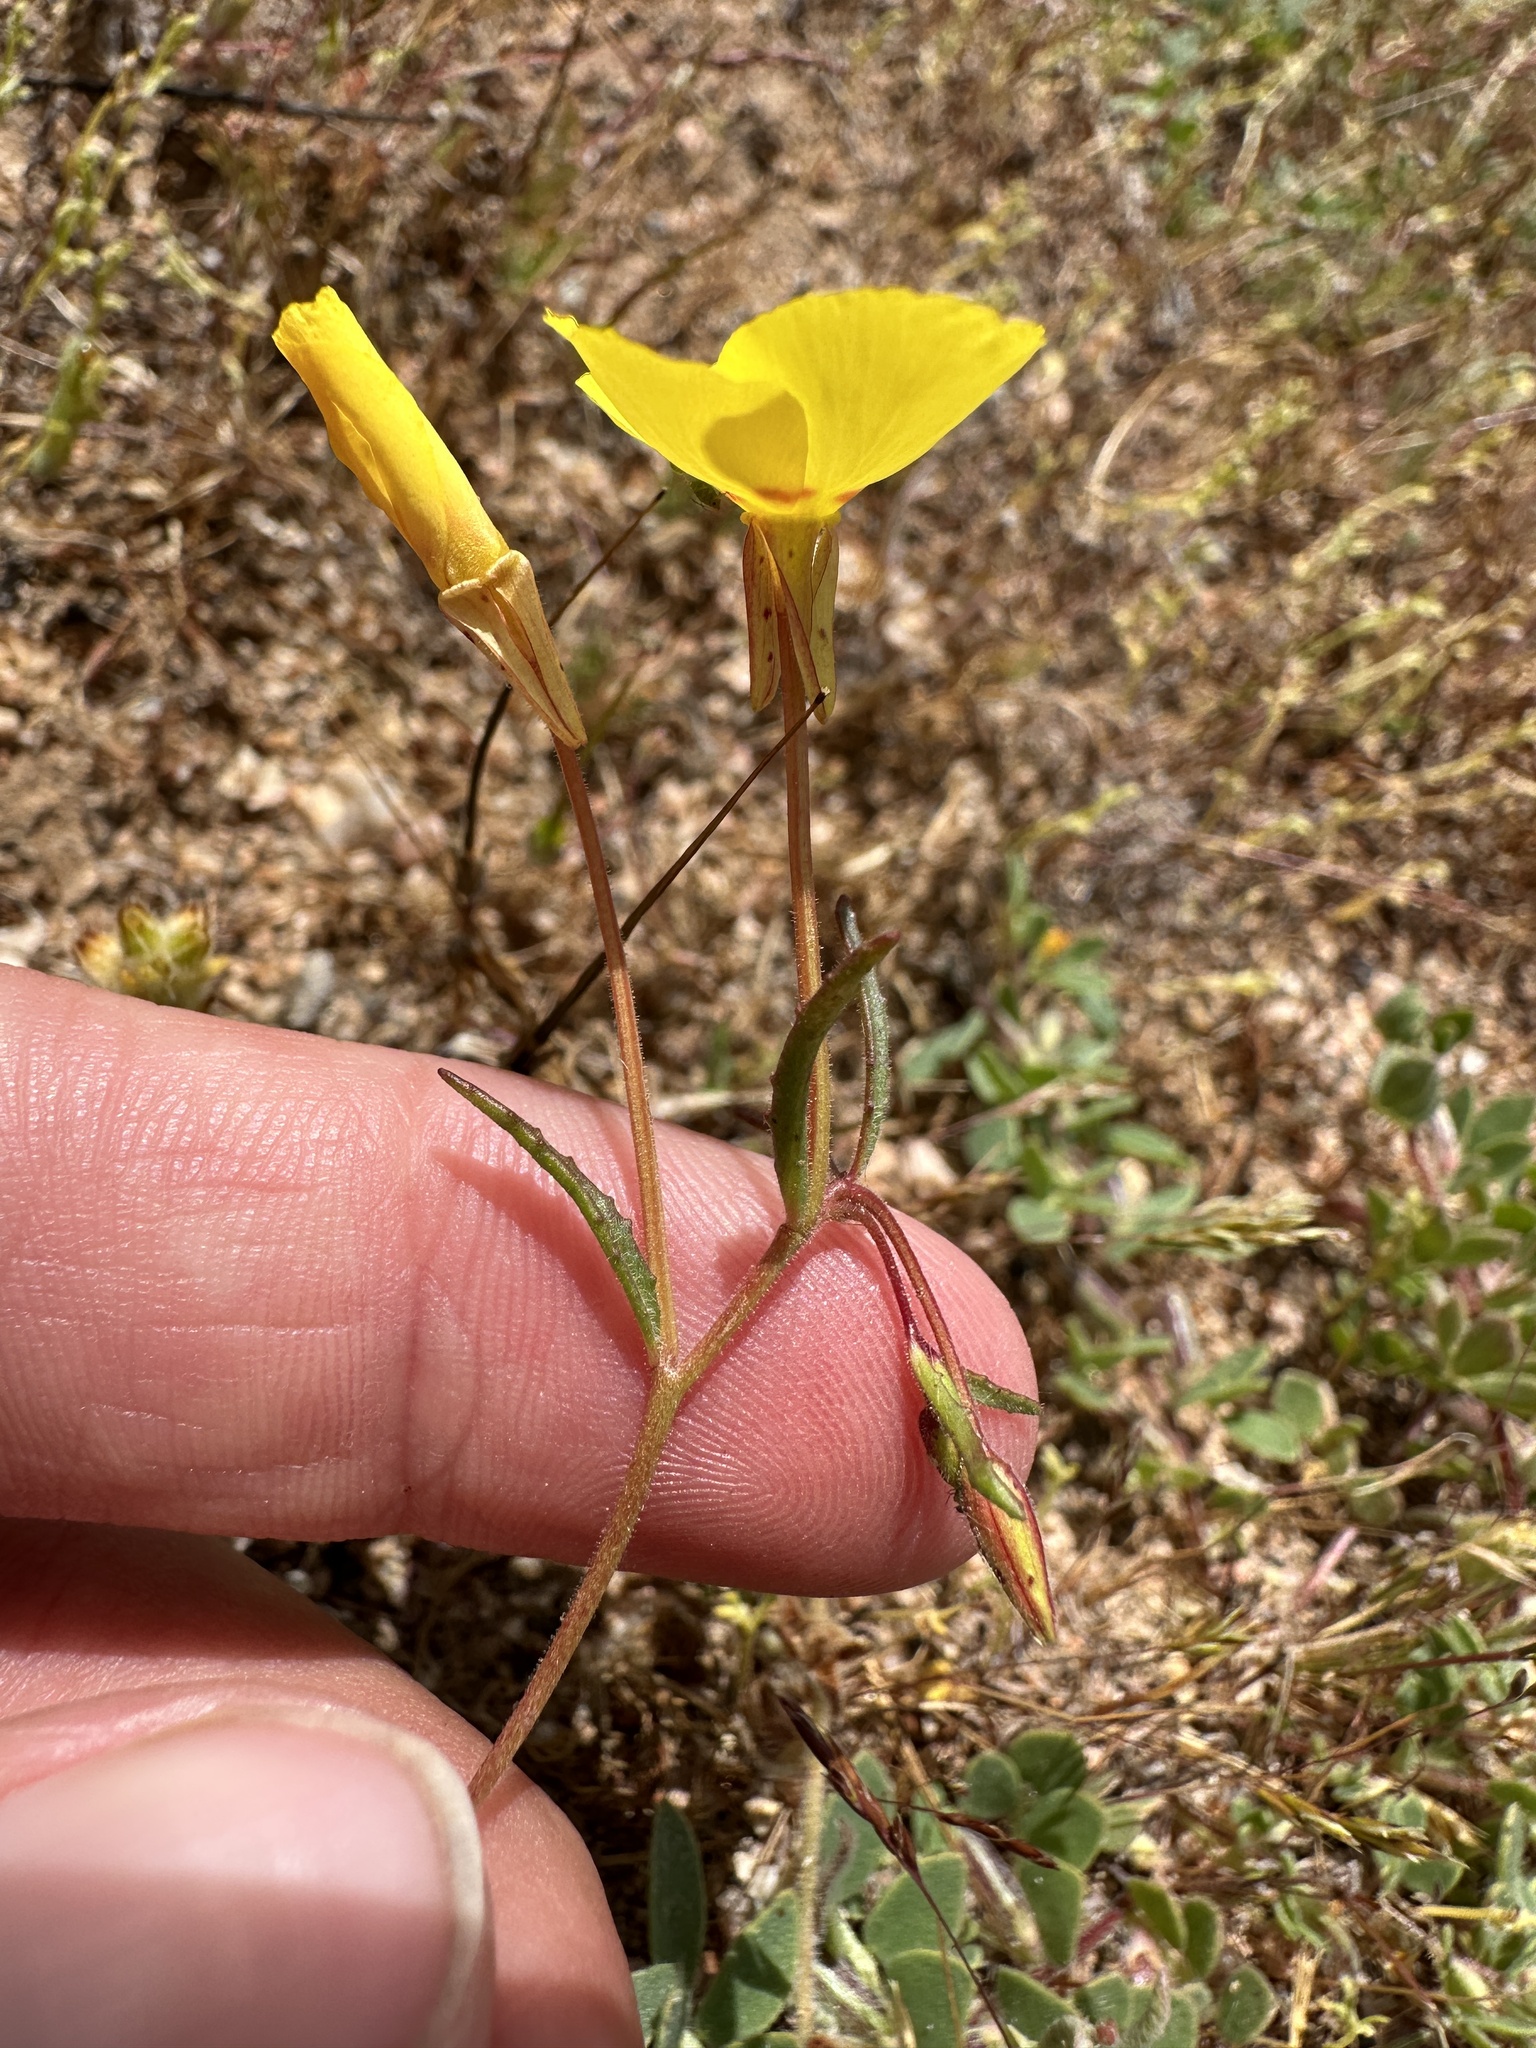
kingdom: Plantae
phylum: Tracheophyta
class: Magnoliopsida
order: Myrtales
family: Onagraceae
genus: Camissonia
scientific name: Camissonia campestris
